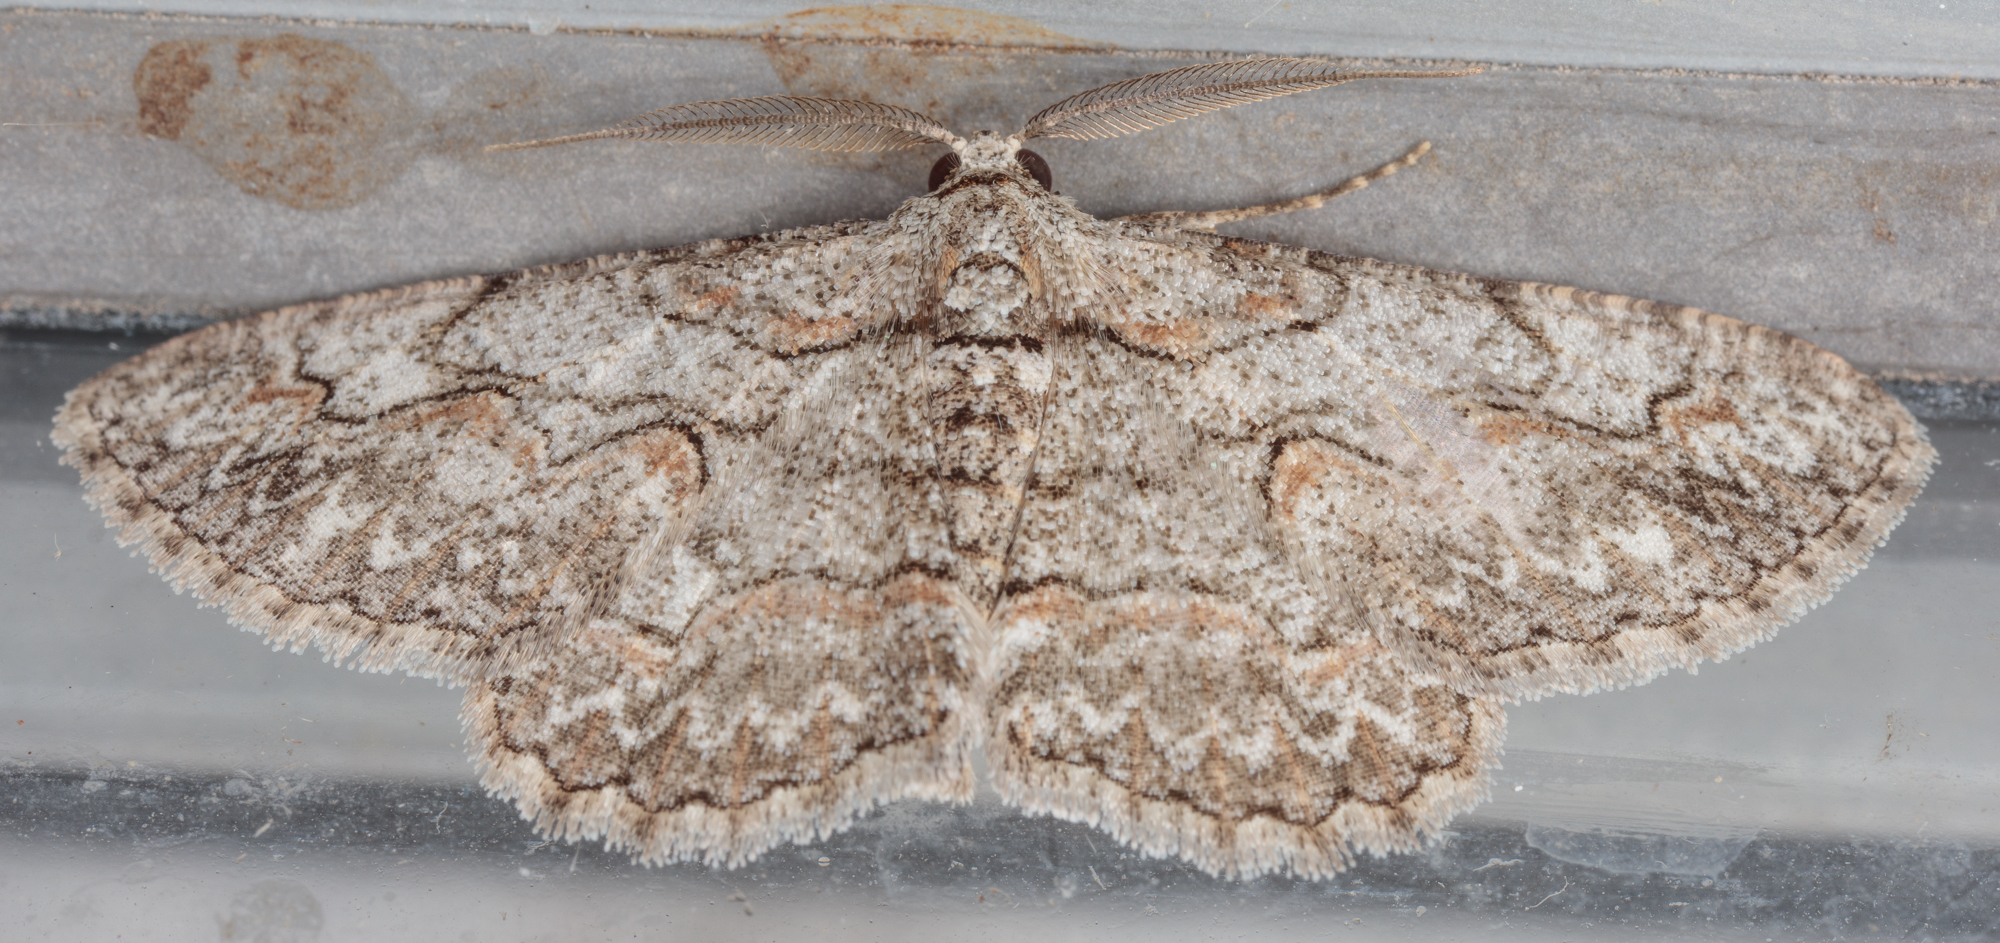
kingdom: Animalia
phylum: Arthropoda
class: Insecta
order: Lepidoptera
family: Geometridae
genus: Iridopsis
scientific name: Iridopsis defectaria
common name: Brown-shaded gray
